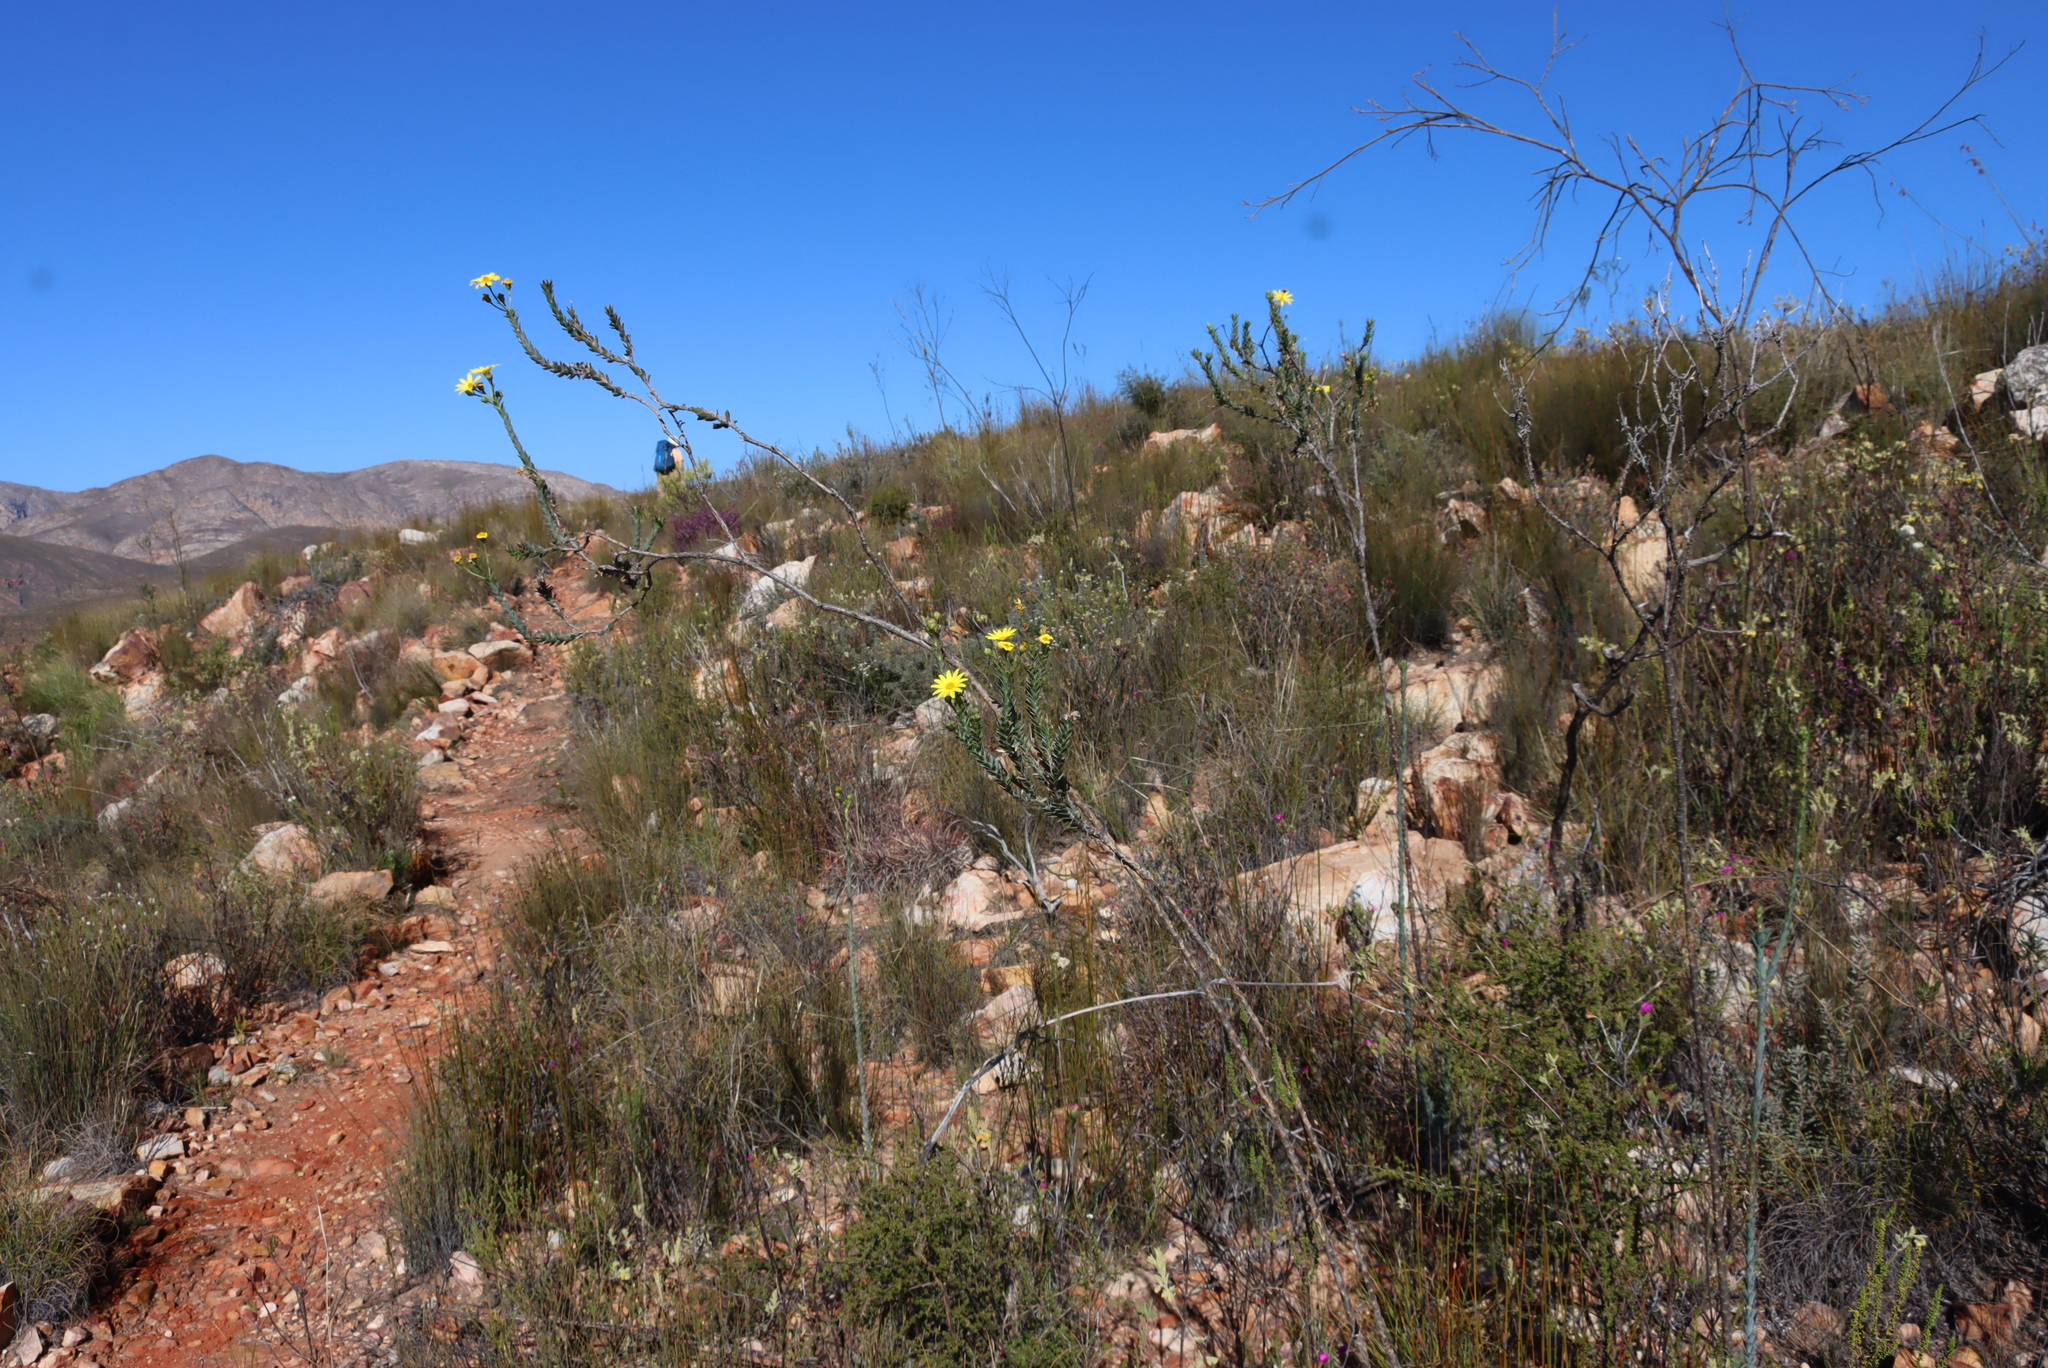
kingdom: Plantae
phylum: Tracheophyta
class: Magnoliopsida
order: Santalales
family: Thesiaceae
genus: Thesium
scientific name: Thesium strictum
